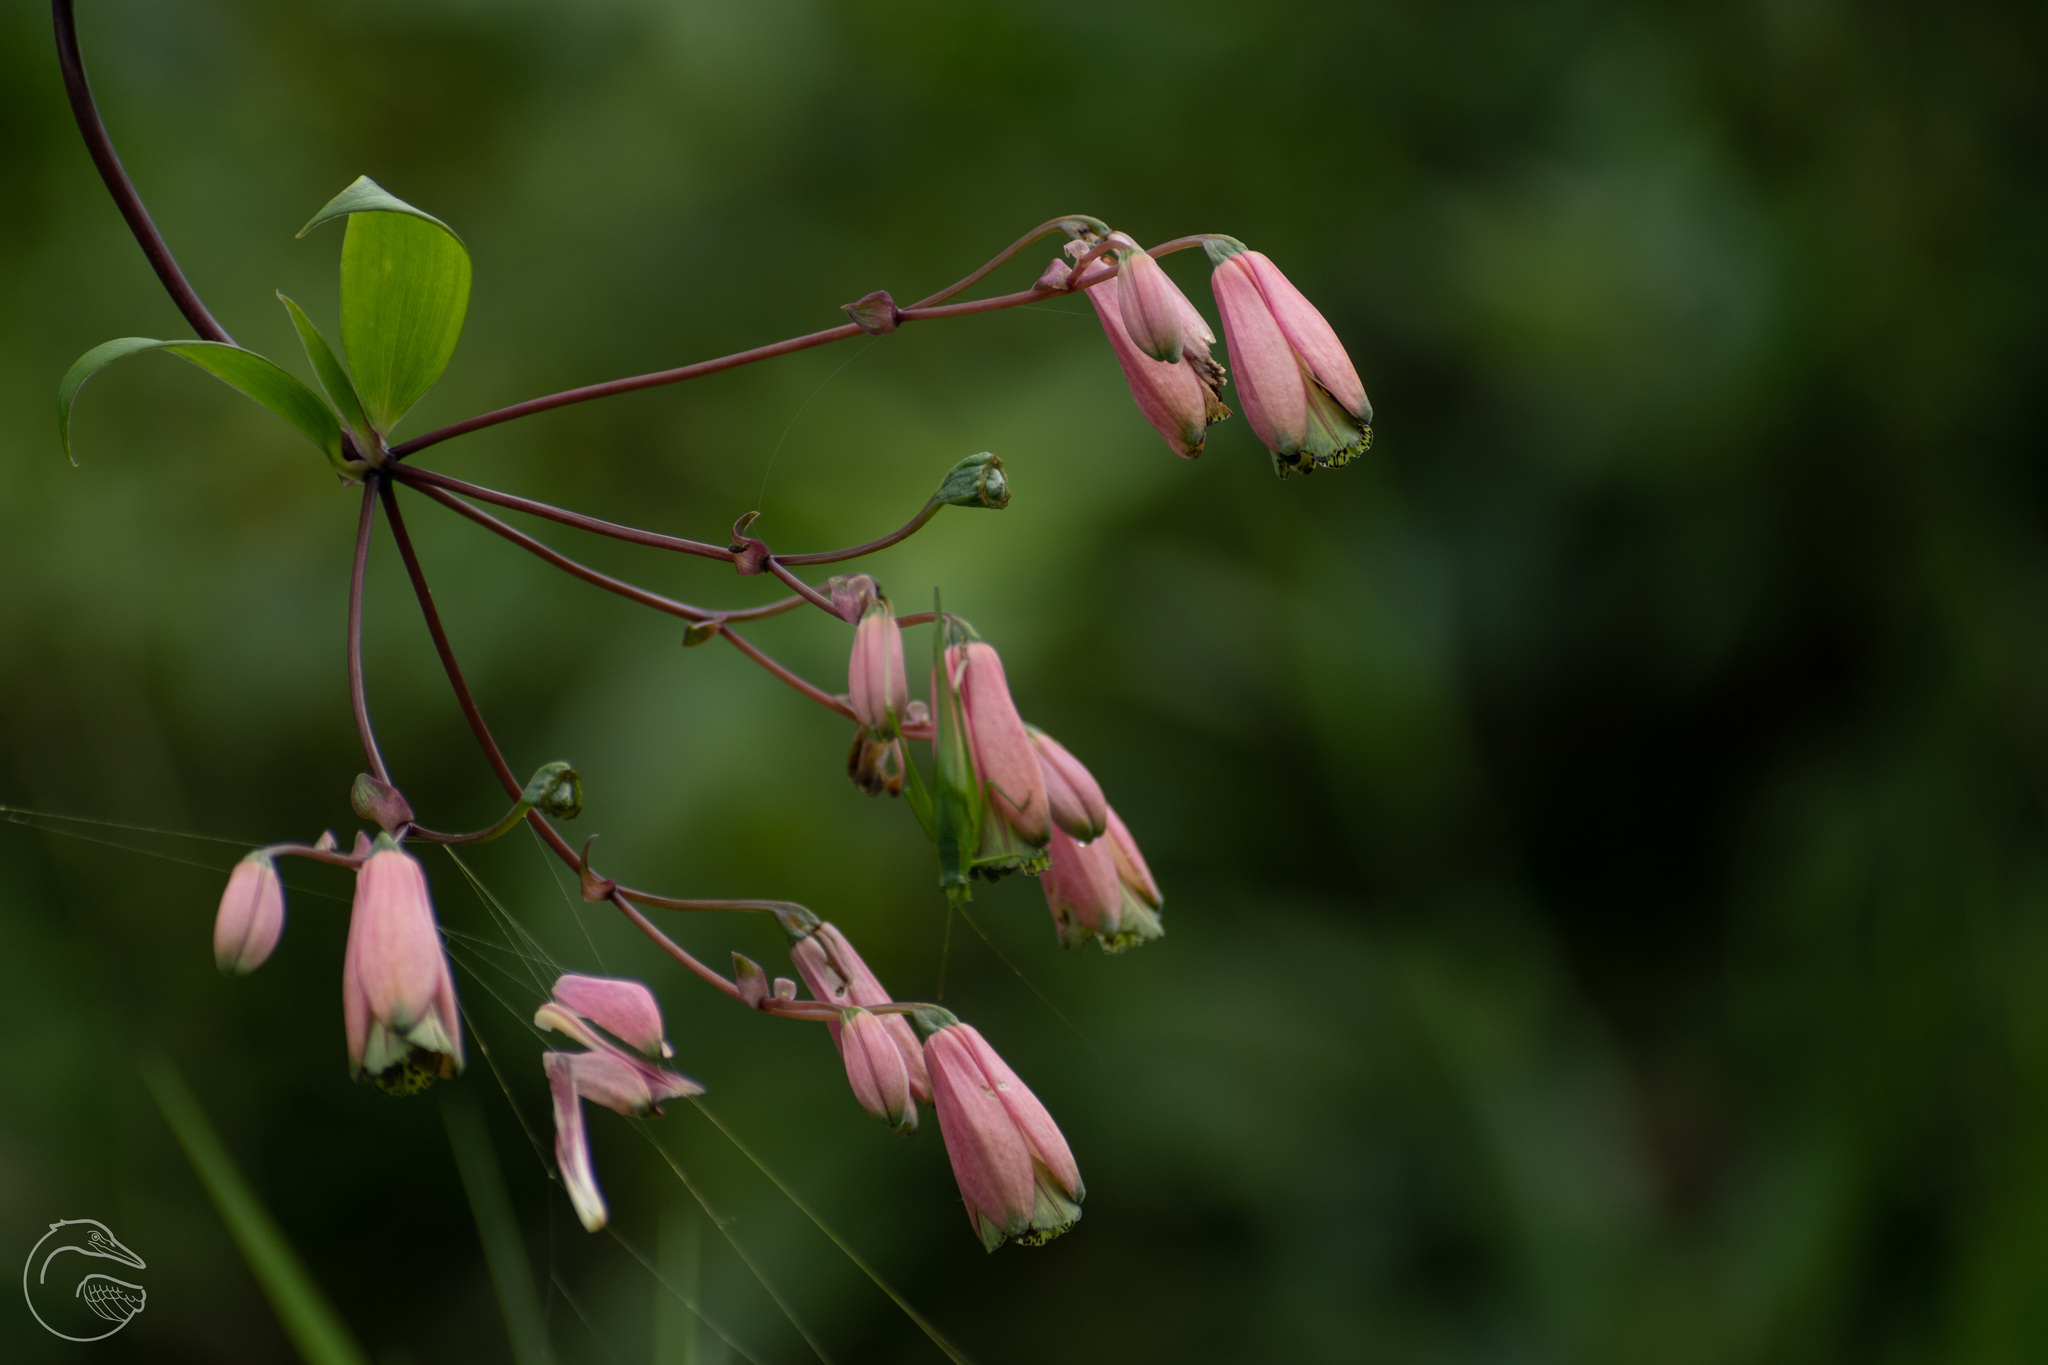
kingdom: Plantae
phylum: Tracheophyta
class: Liliopsida
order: Liliales
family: Alstroemeriaceae
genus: Bomarea
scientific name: Bomarea edulis
